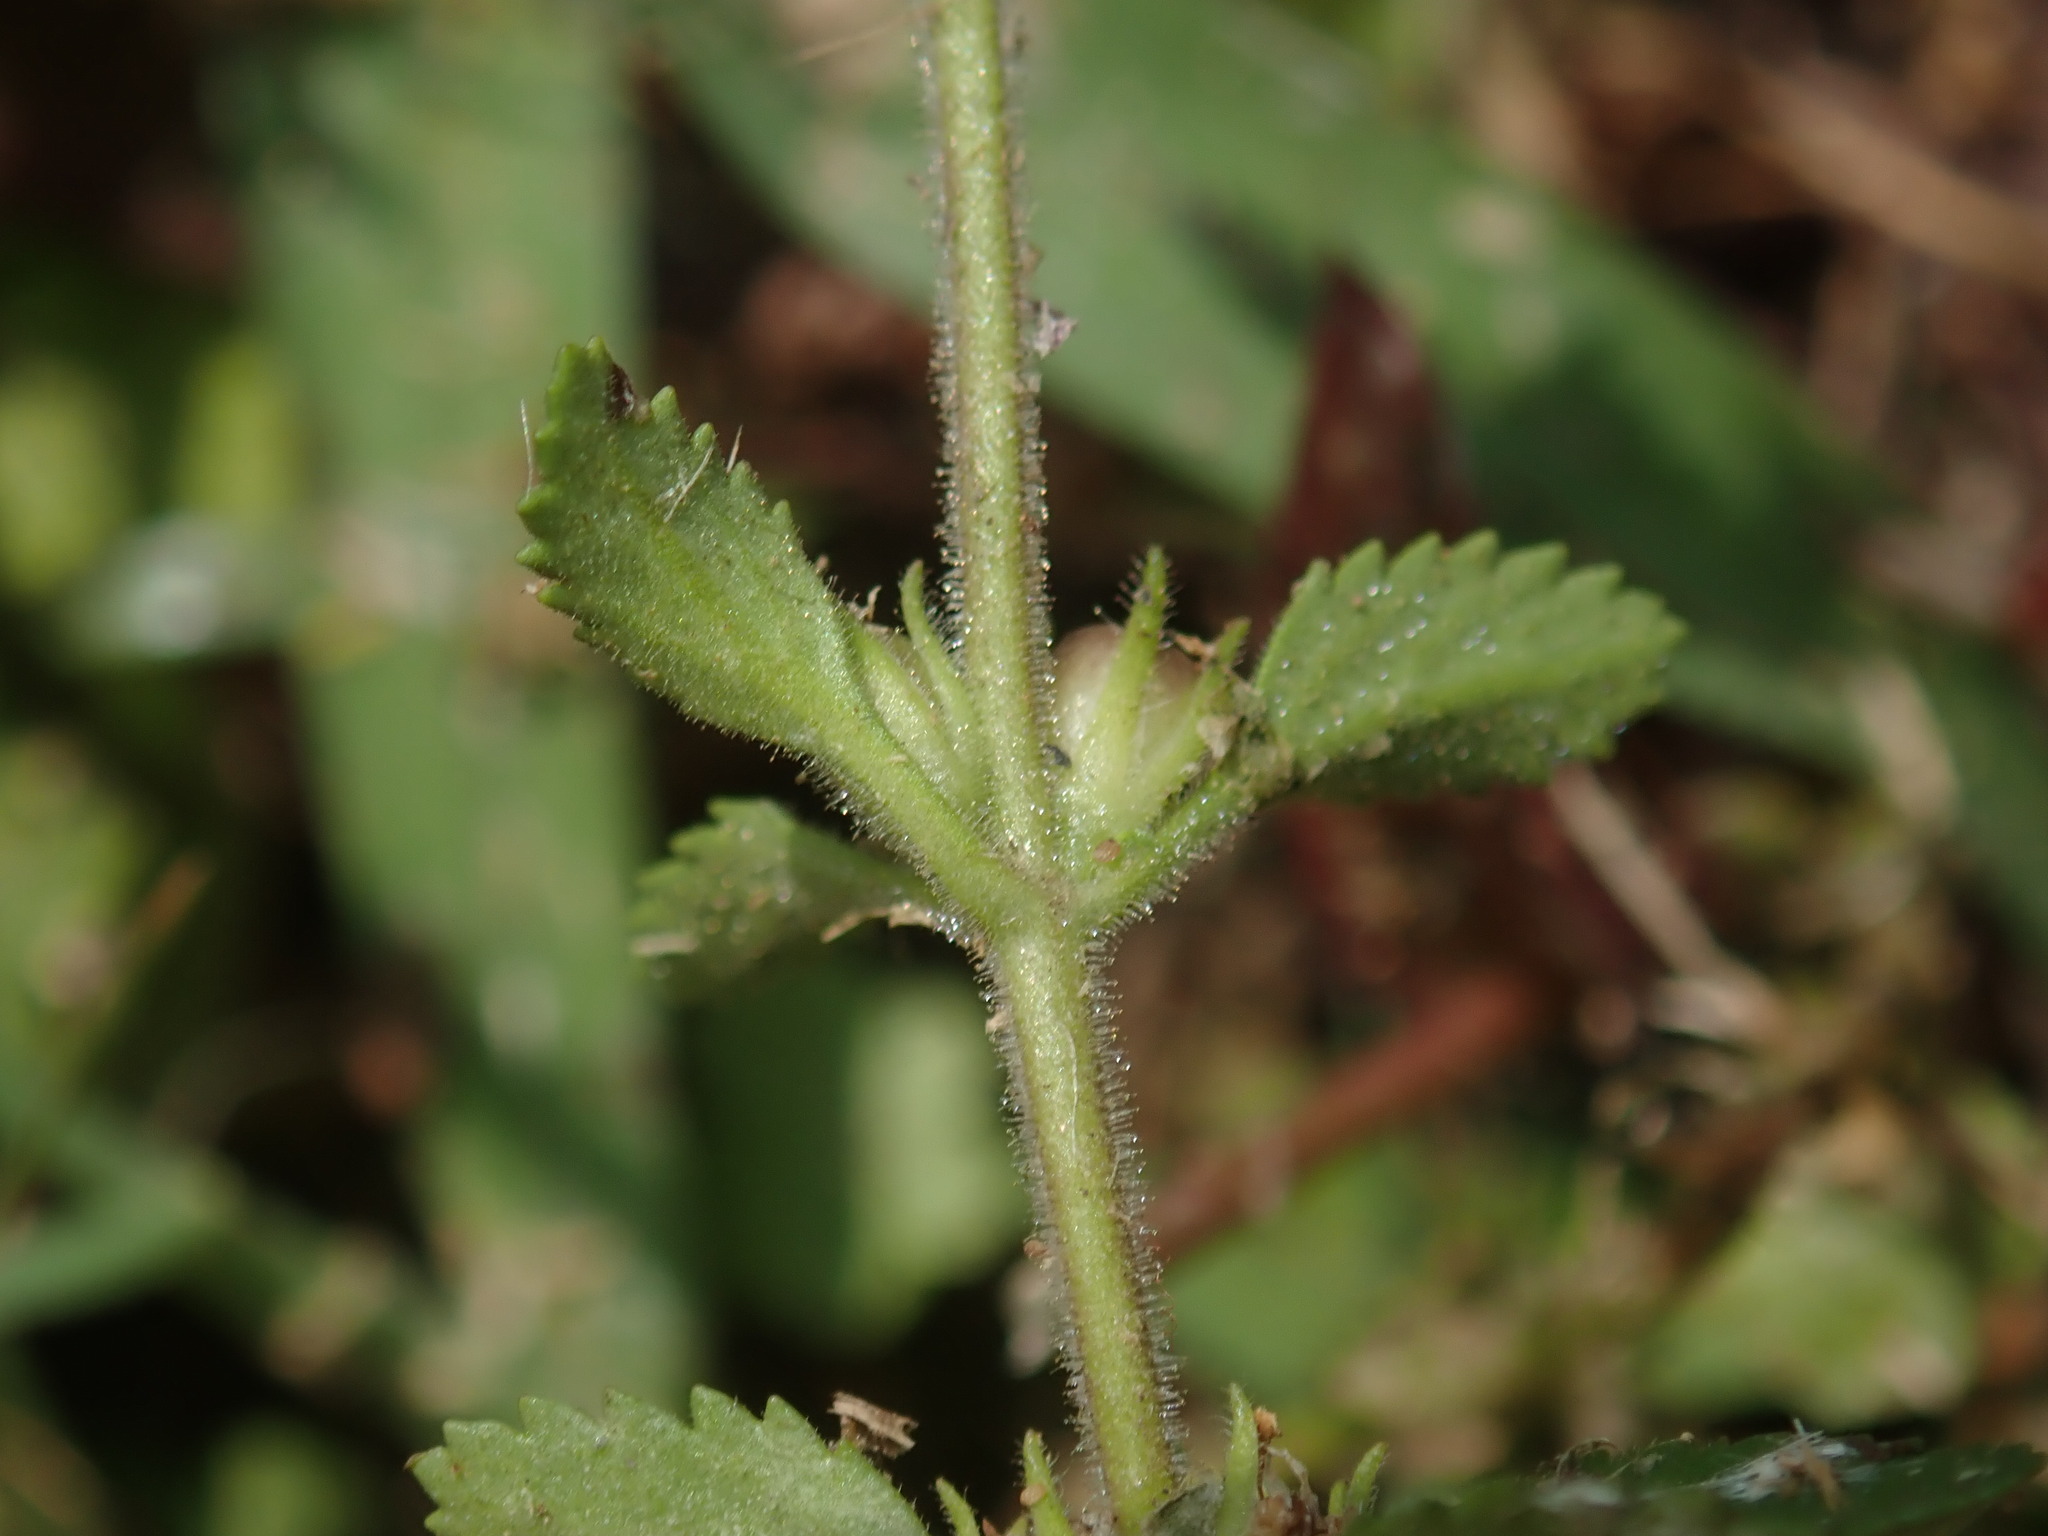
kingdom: Plantae
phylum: Tracheophyta
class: Magnoliopsida
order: Lamiales
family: Plantaginaceae
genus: Stemodia
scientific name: Stemodia verticillata
